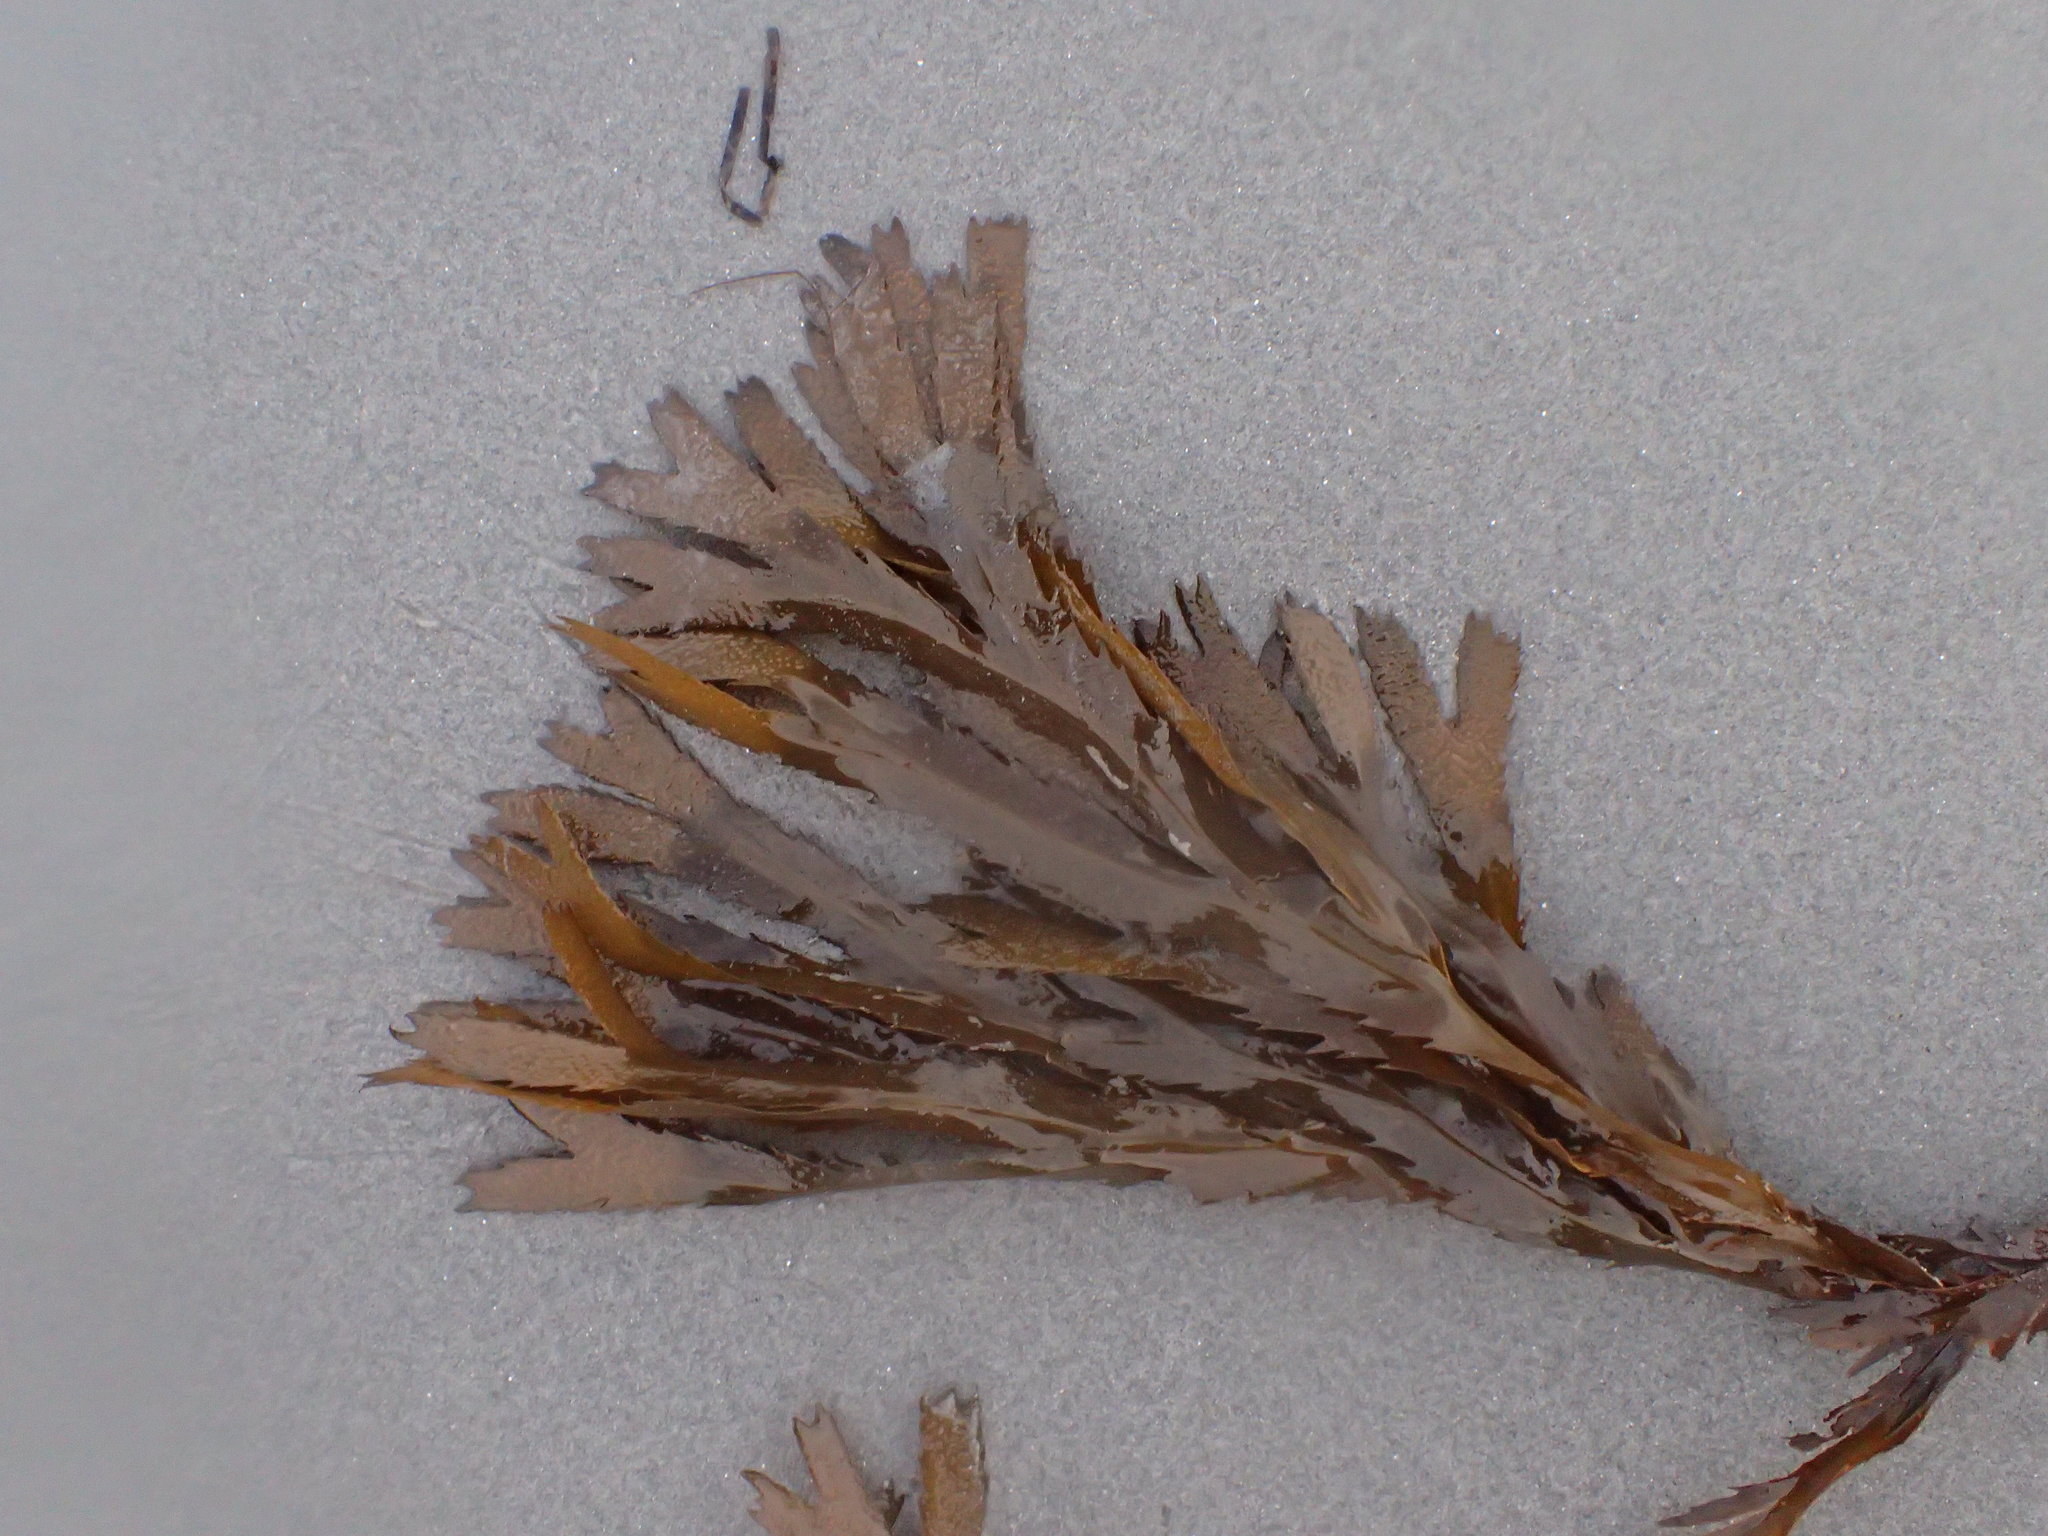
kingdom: Chromista
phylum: Ochrophyta
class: Phaeophyceae
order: Fucales
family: Fucaceae
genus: Fucus
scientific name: Fucus serratus
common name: Toothed wrack
